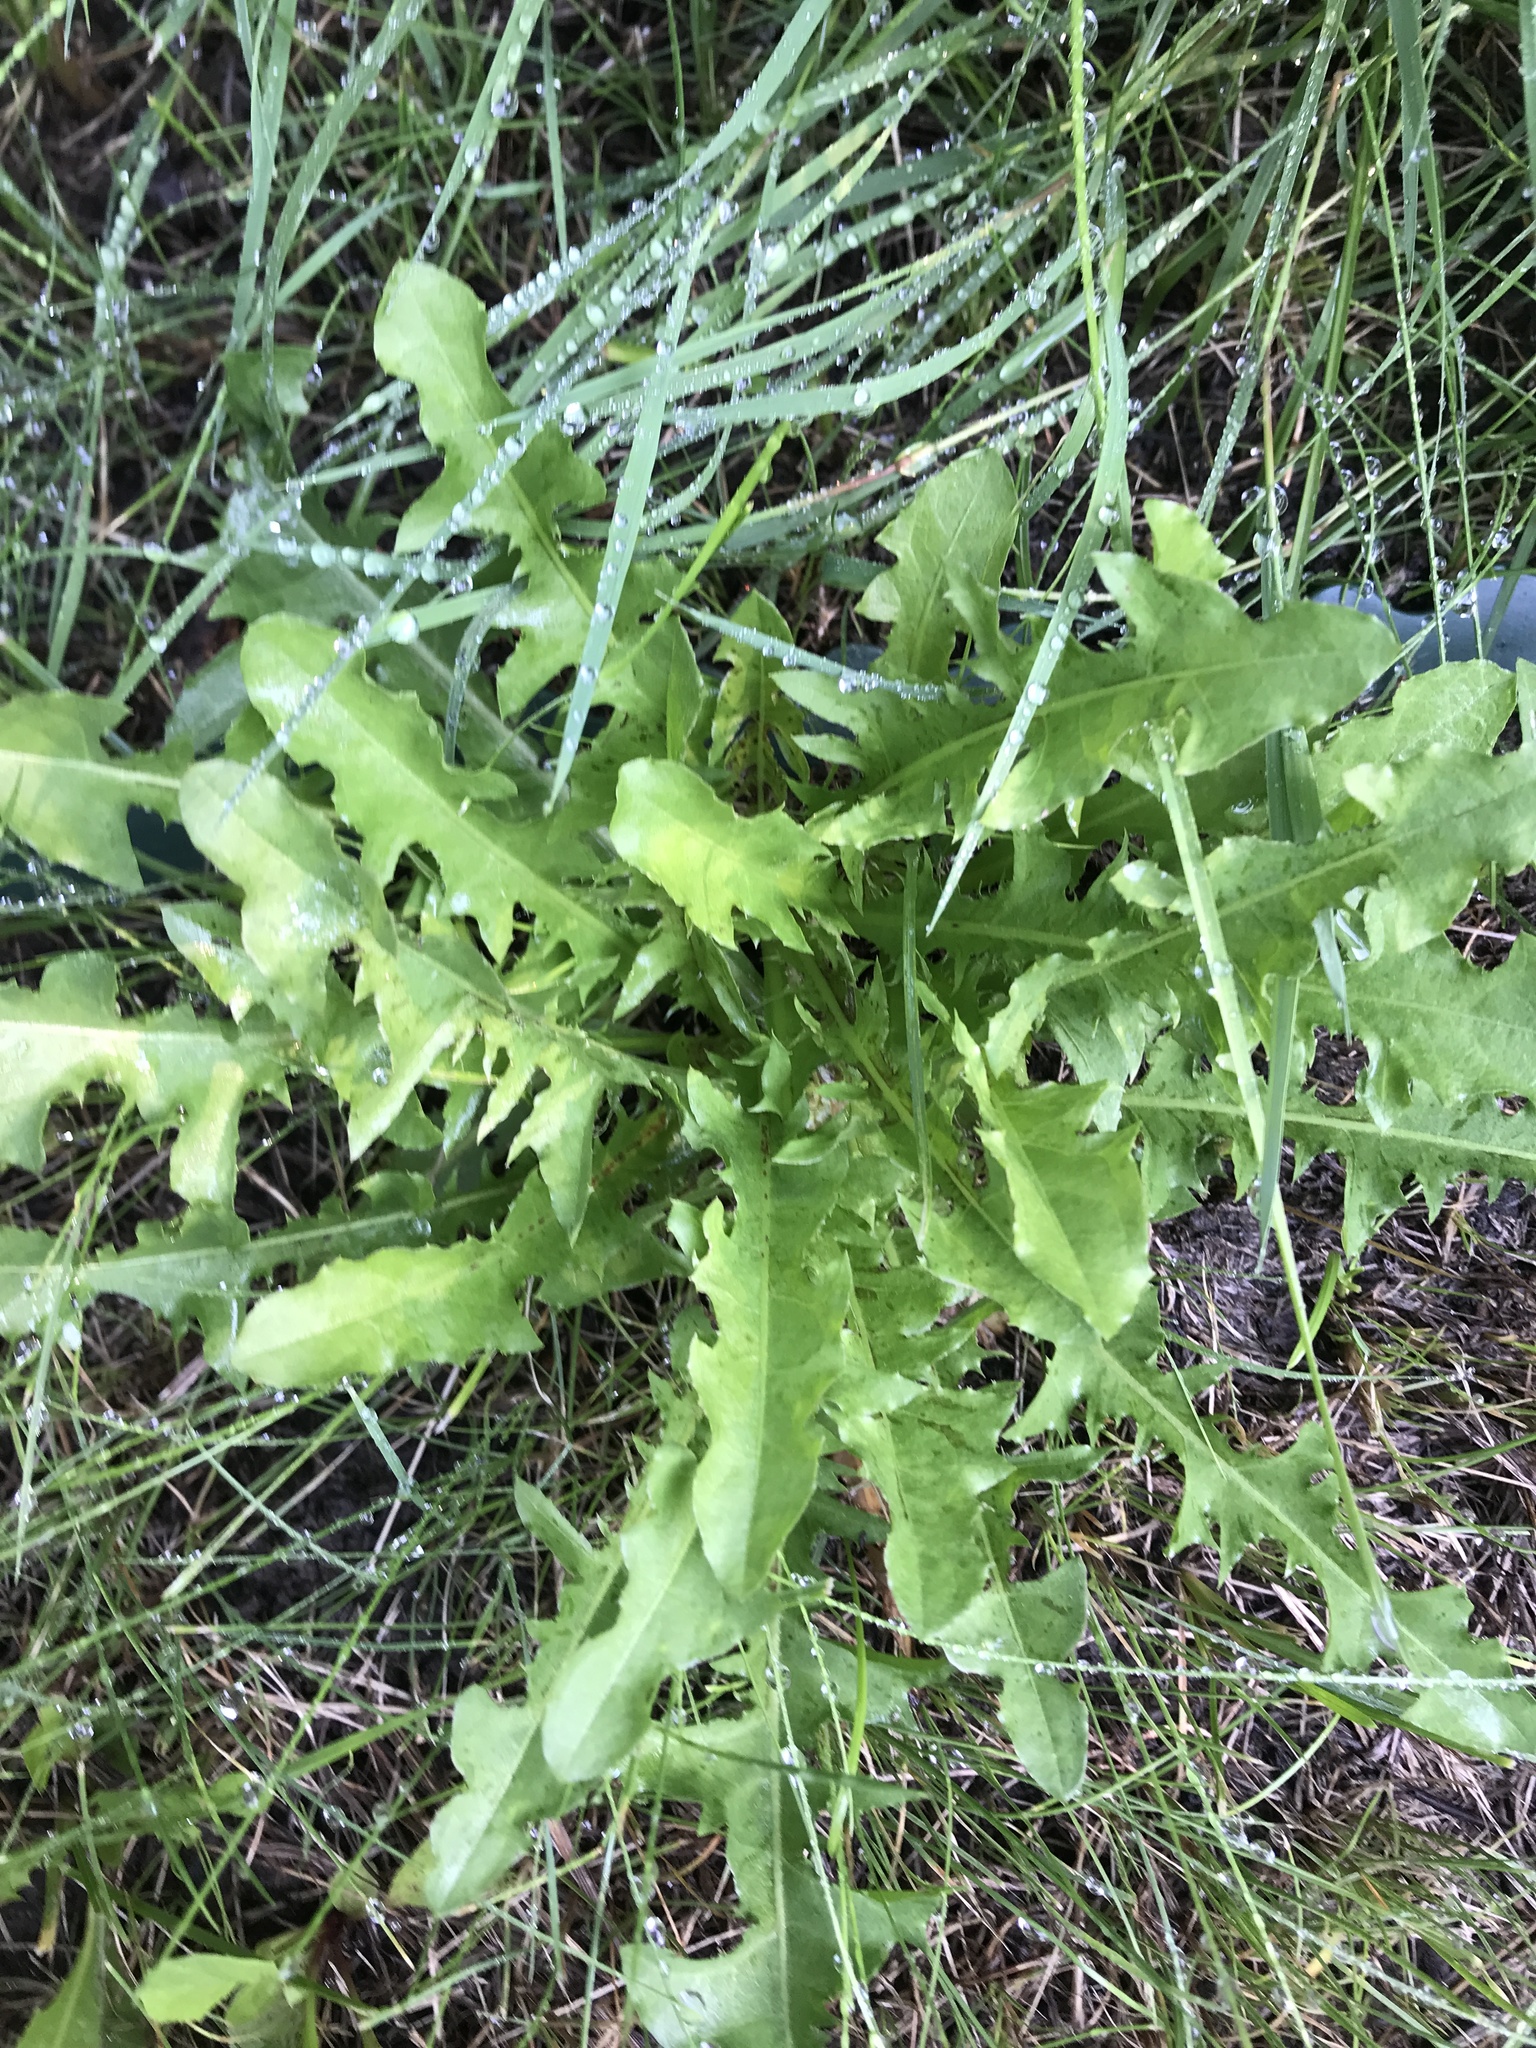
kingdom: Plantae
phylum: Tracheophyta
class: Magnoliopsida
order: Asterales
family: Asteraceae
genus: Taraxacum
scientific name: Taraxacum officinale
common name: Common dandelion
